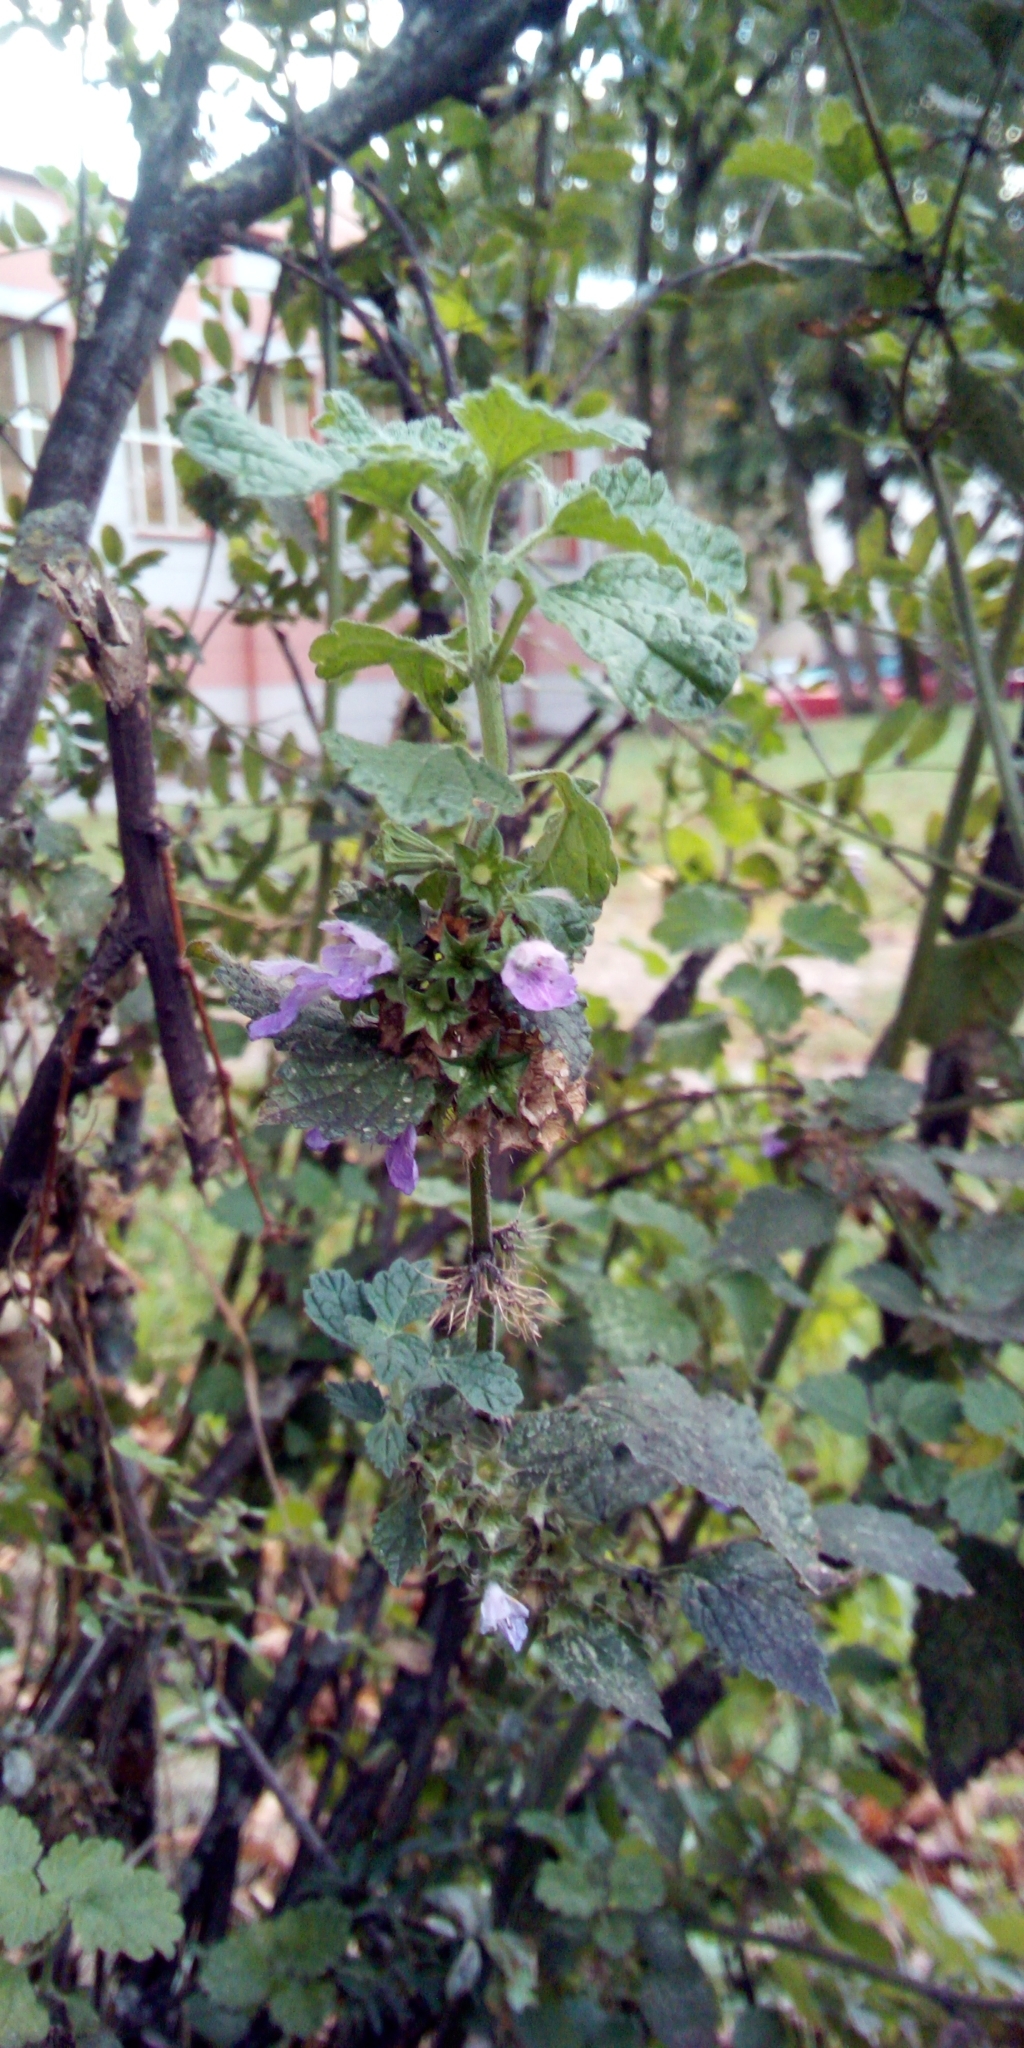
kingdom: Plantae
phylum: Tracheophyta
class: Magnoliopsida
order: Lamiales
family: Lamiaceae
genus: Ballota
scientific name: Ballota nigra
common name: Black horehound
